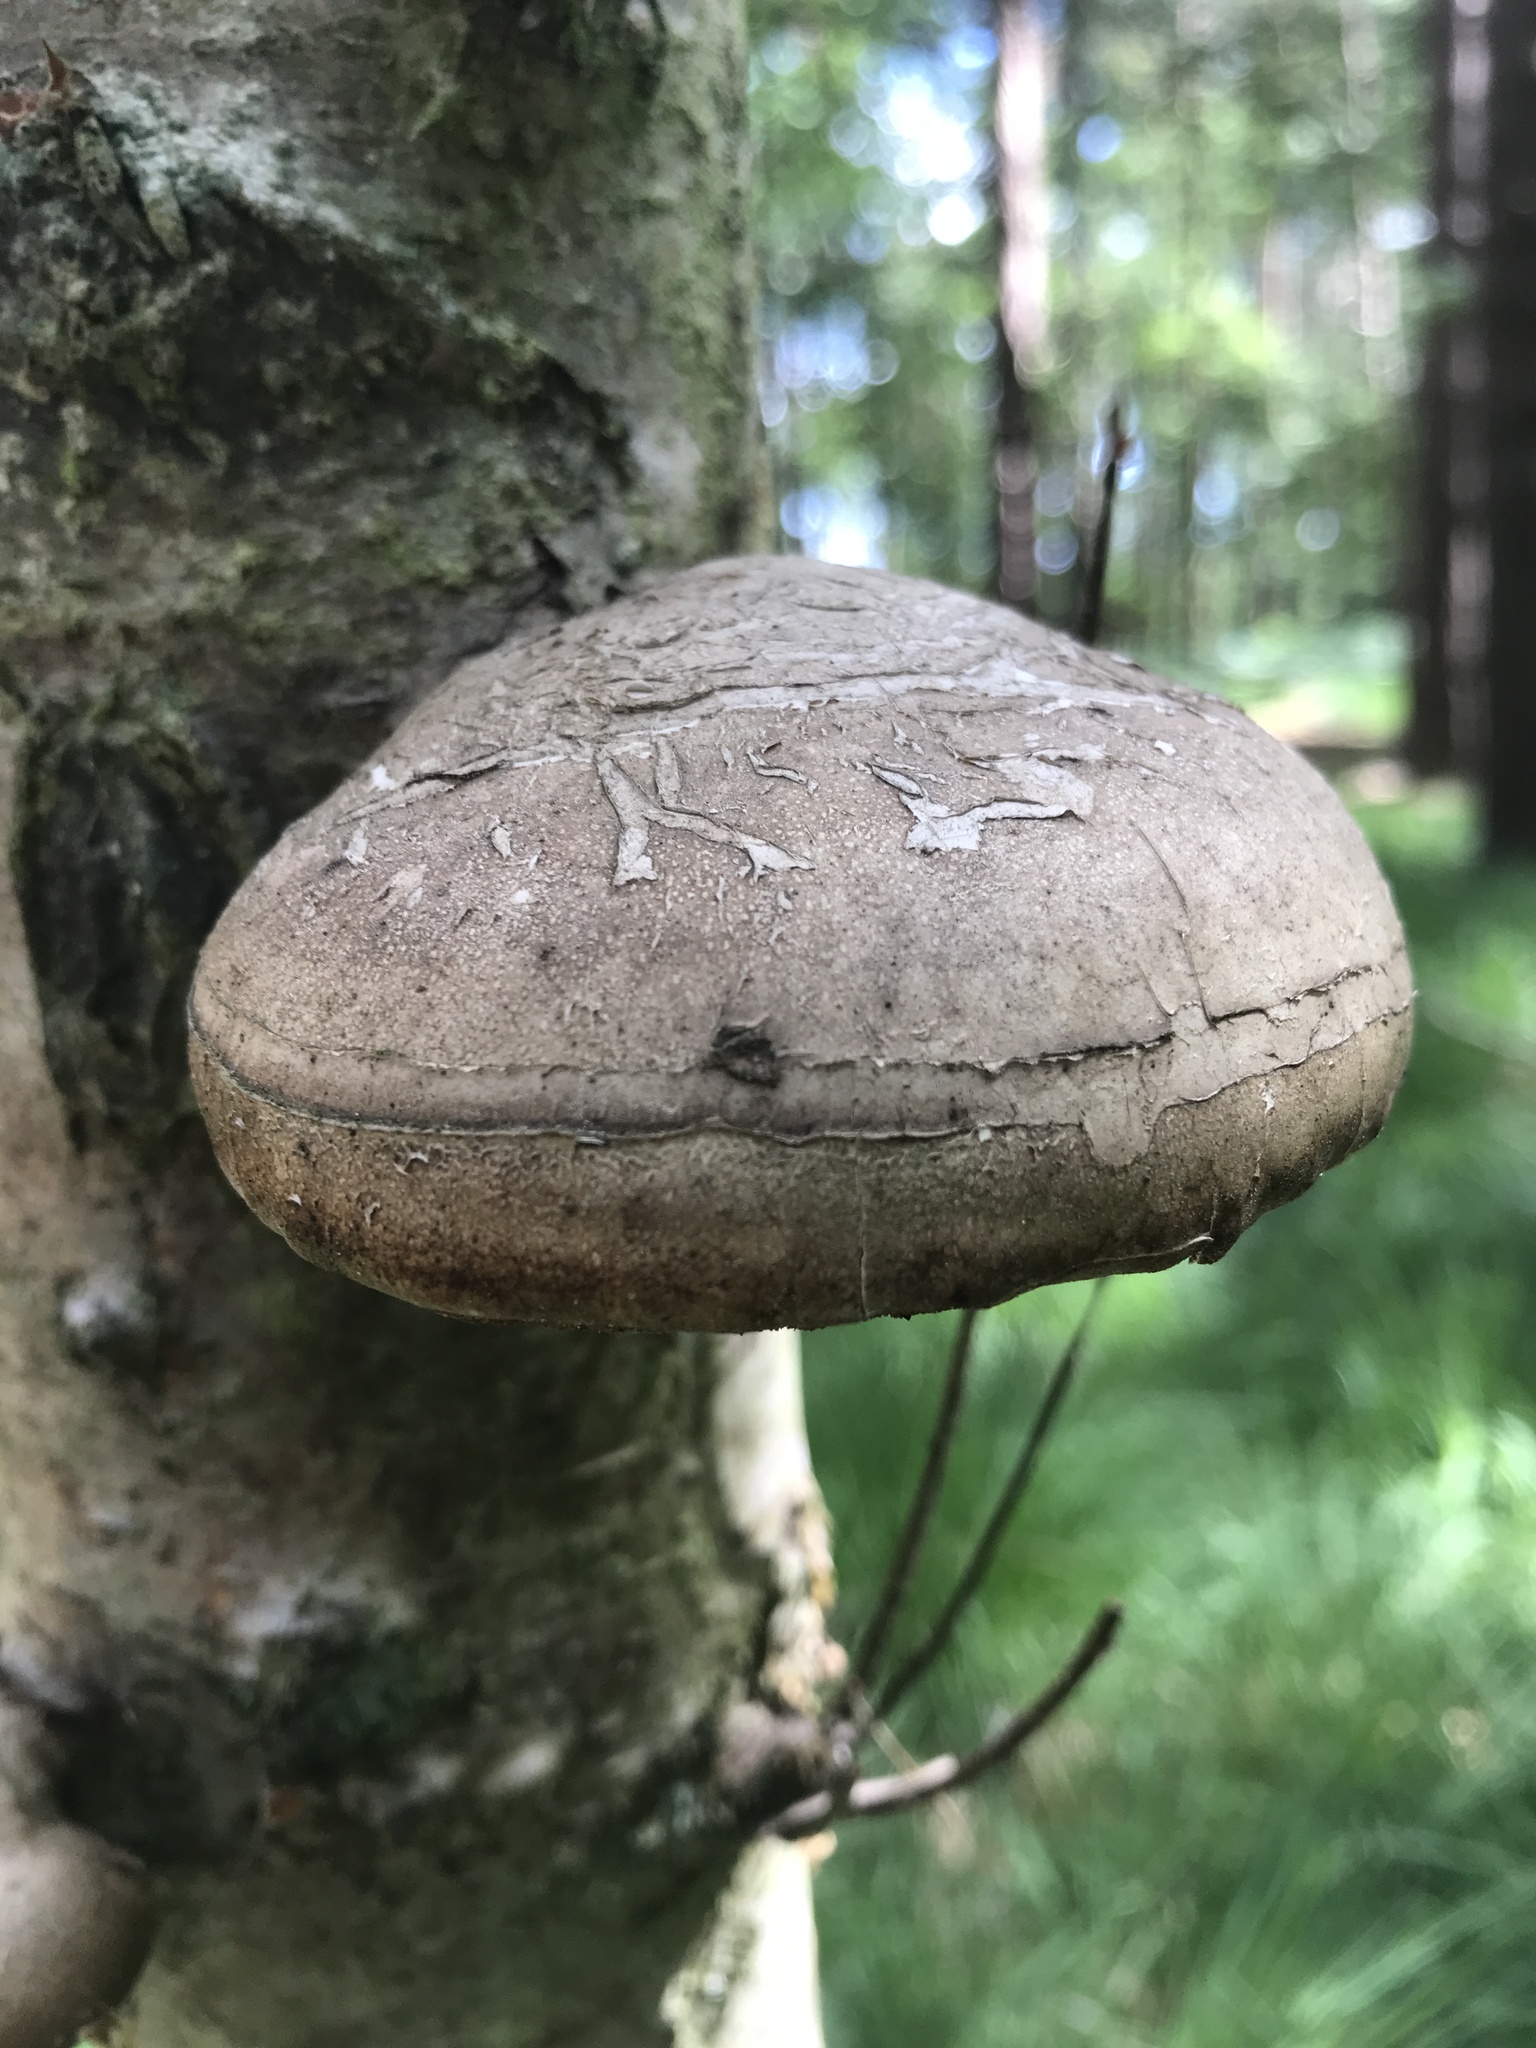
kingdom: Fungi
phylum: Basidiomycota
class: Agaricomycetes
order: Polyporales
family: Fomitopsidaceae
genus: Fomitopsis
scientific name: Fomitopsis betulina
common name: Birch polypore
